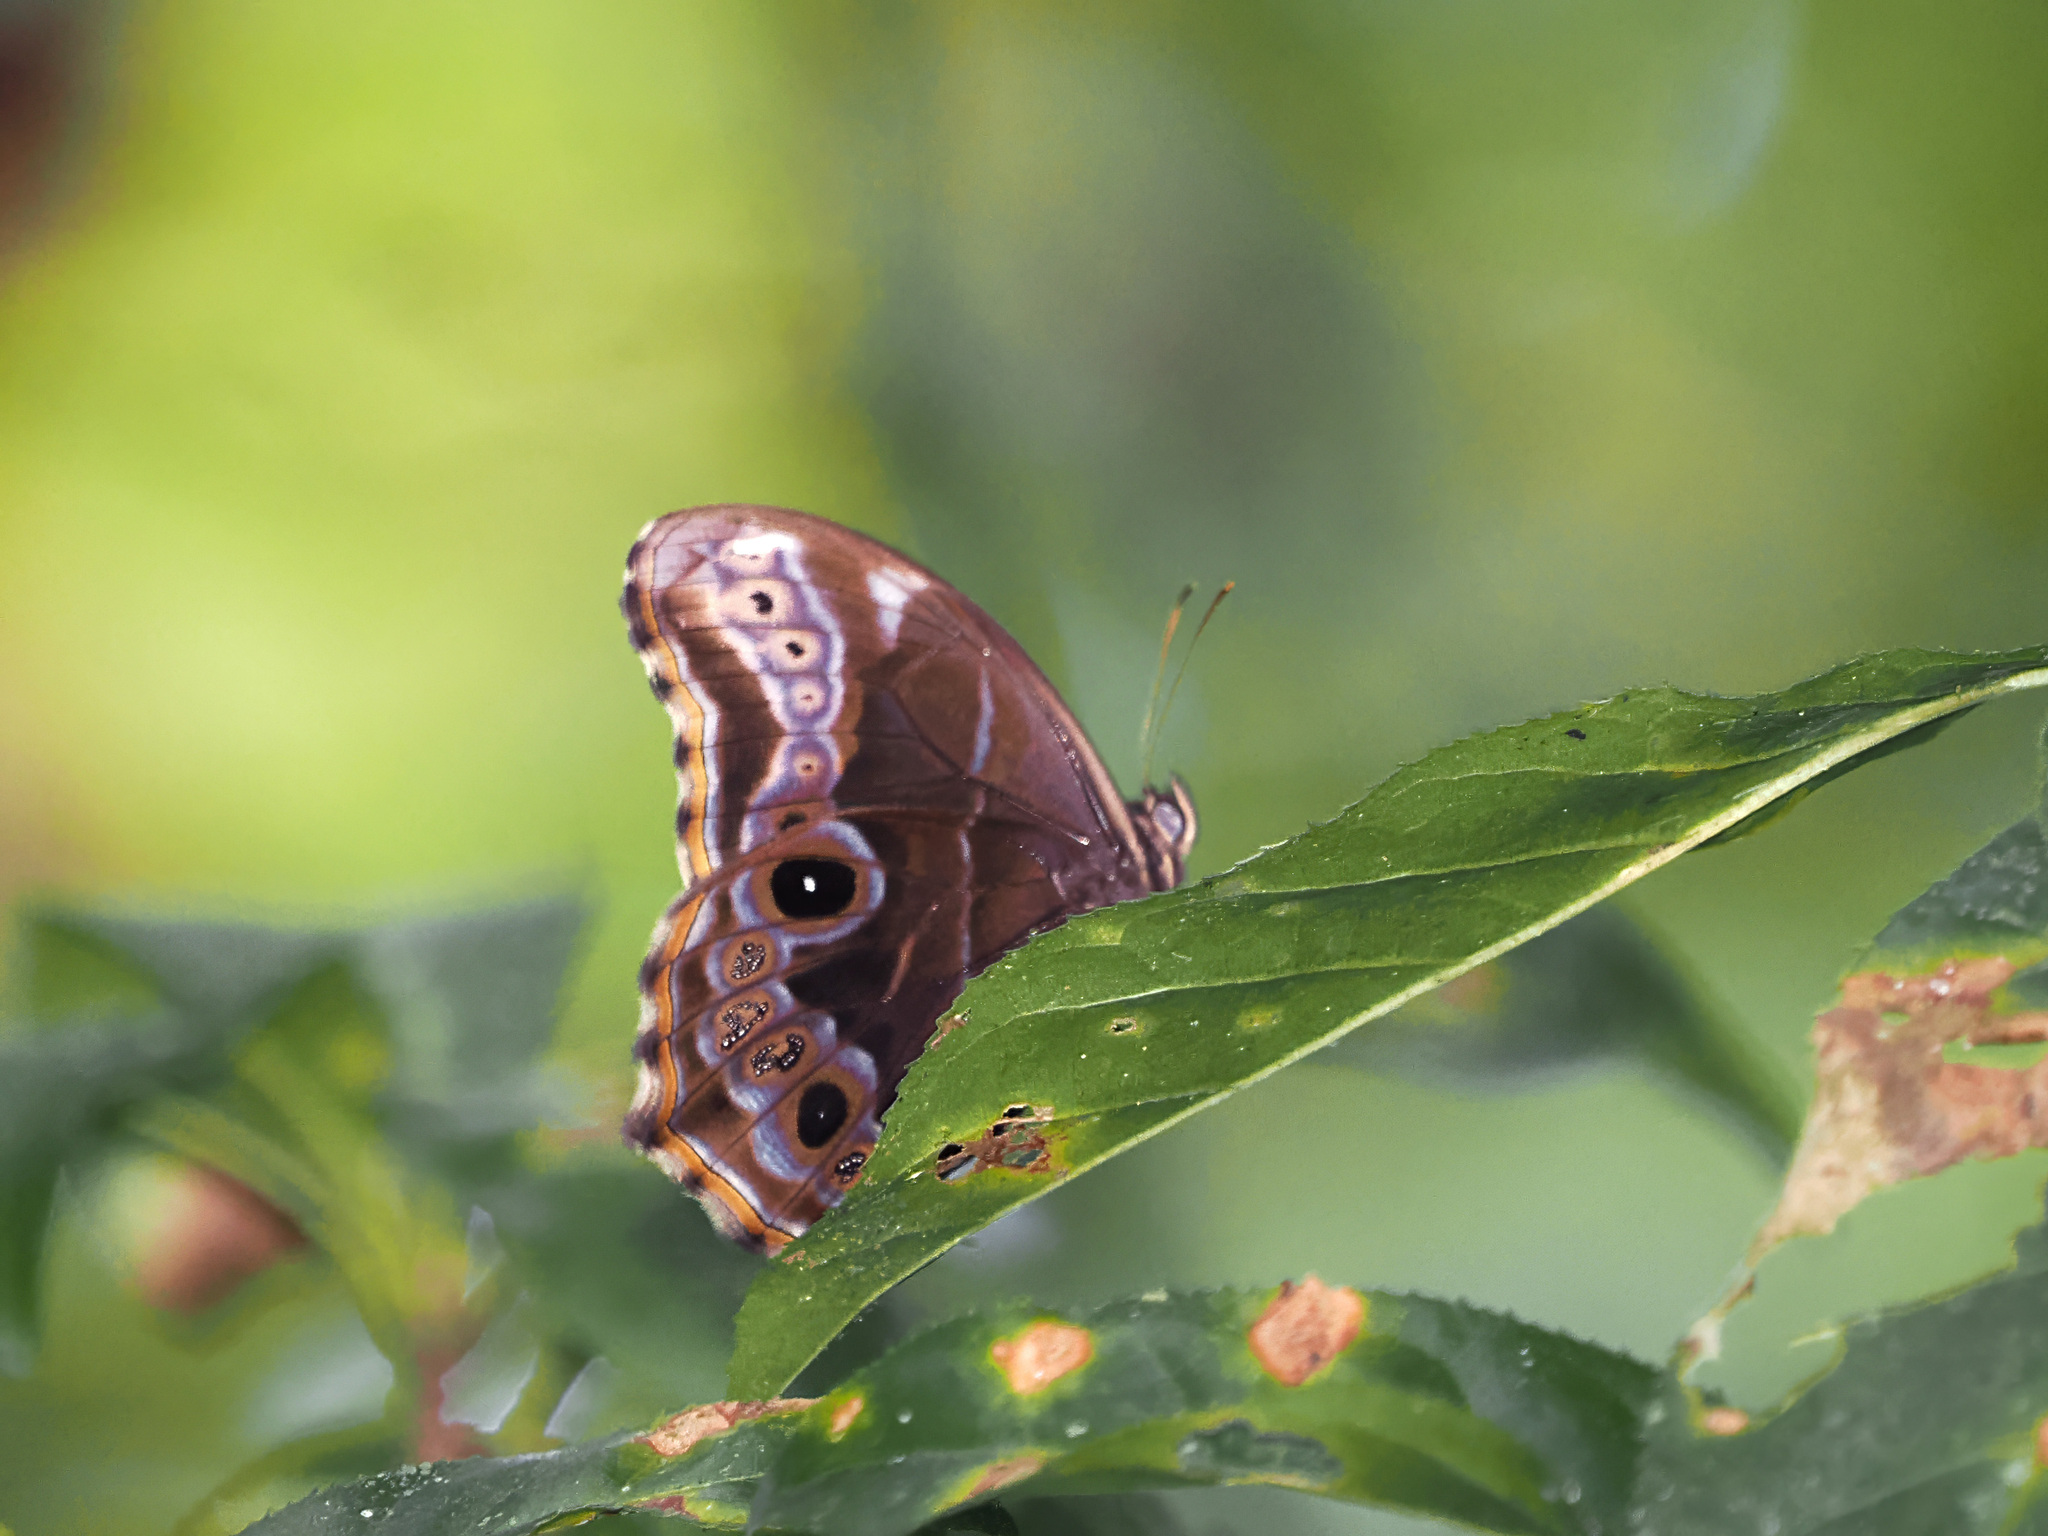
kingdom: Animalia
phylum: Arthropoda
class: Insecta
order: Lepidoptera
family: Nymphalidae
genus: Lethe
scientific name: Lethe arete
